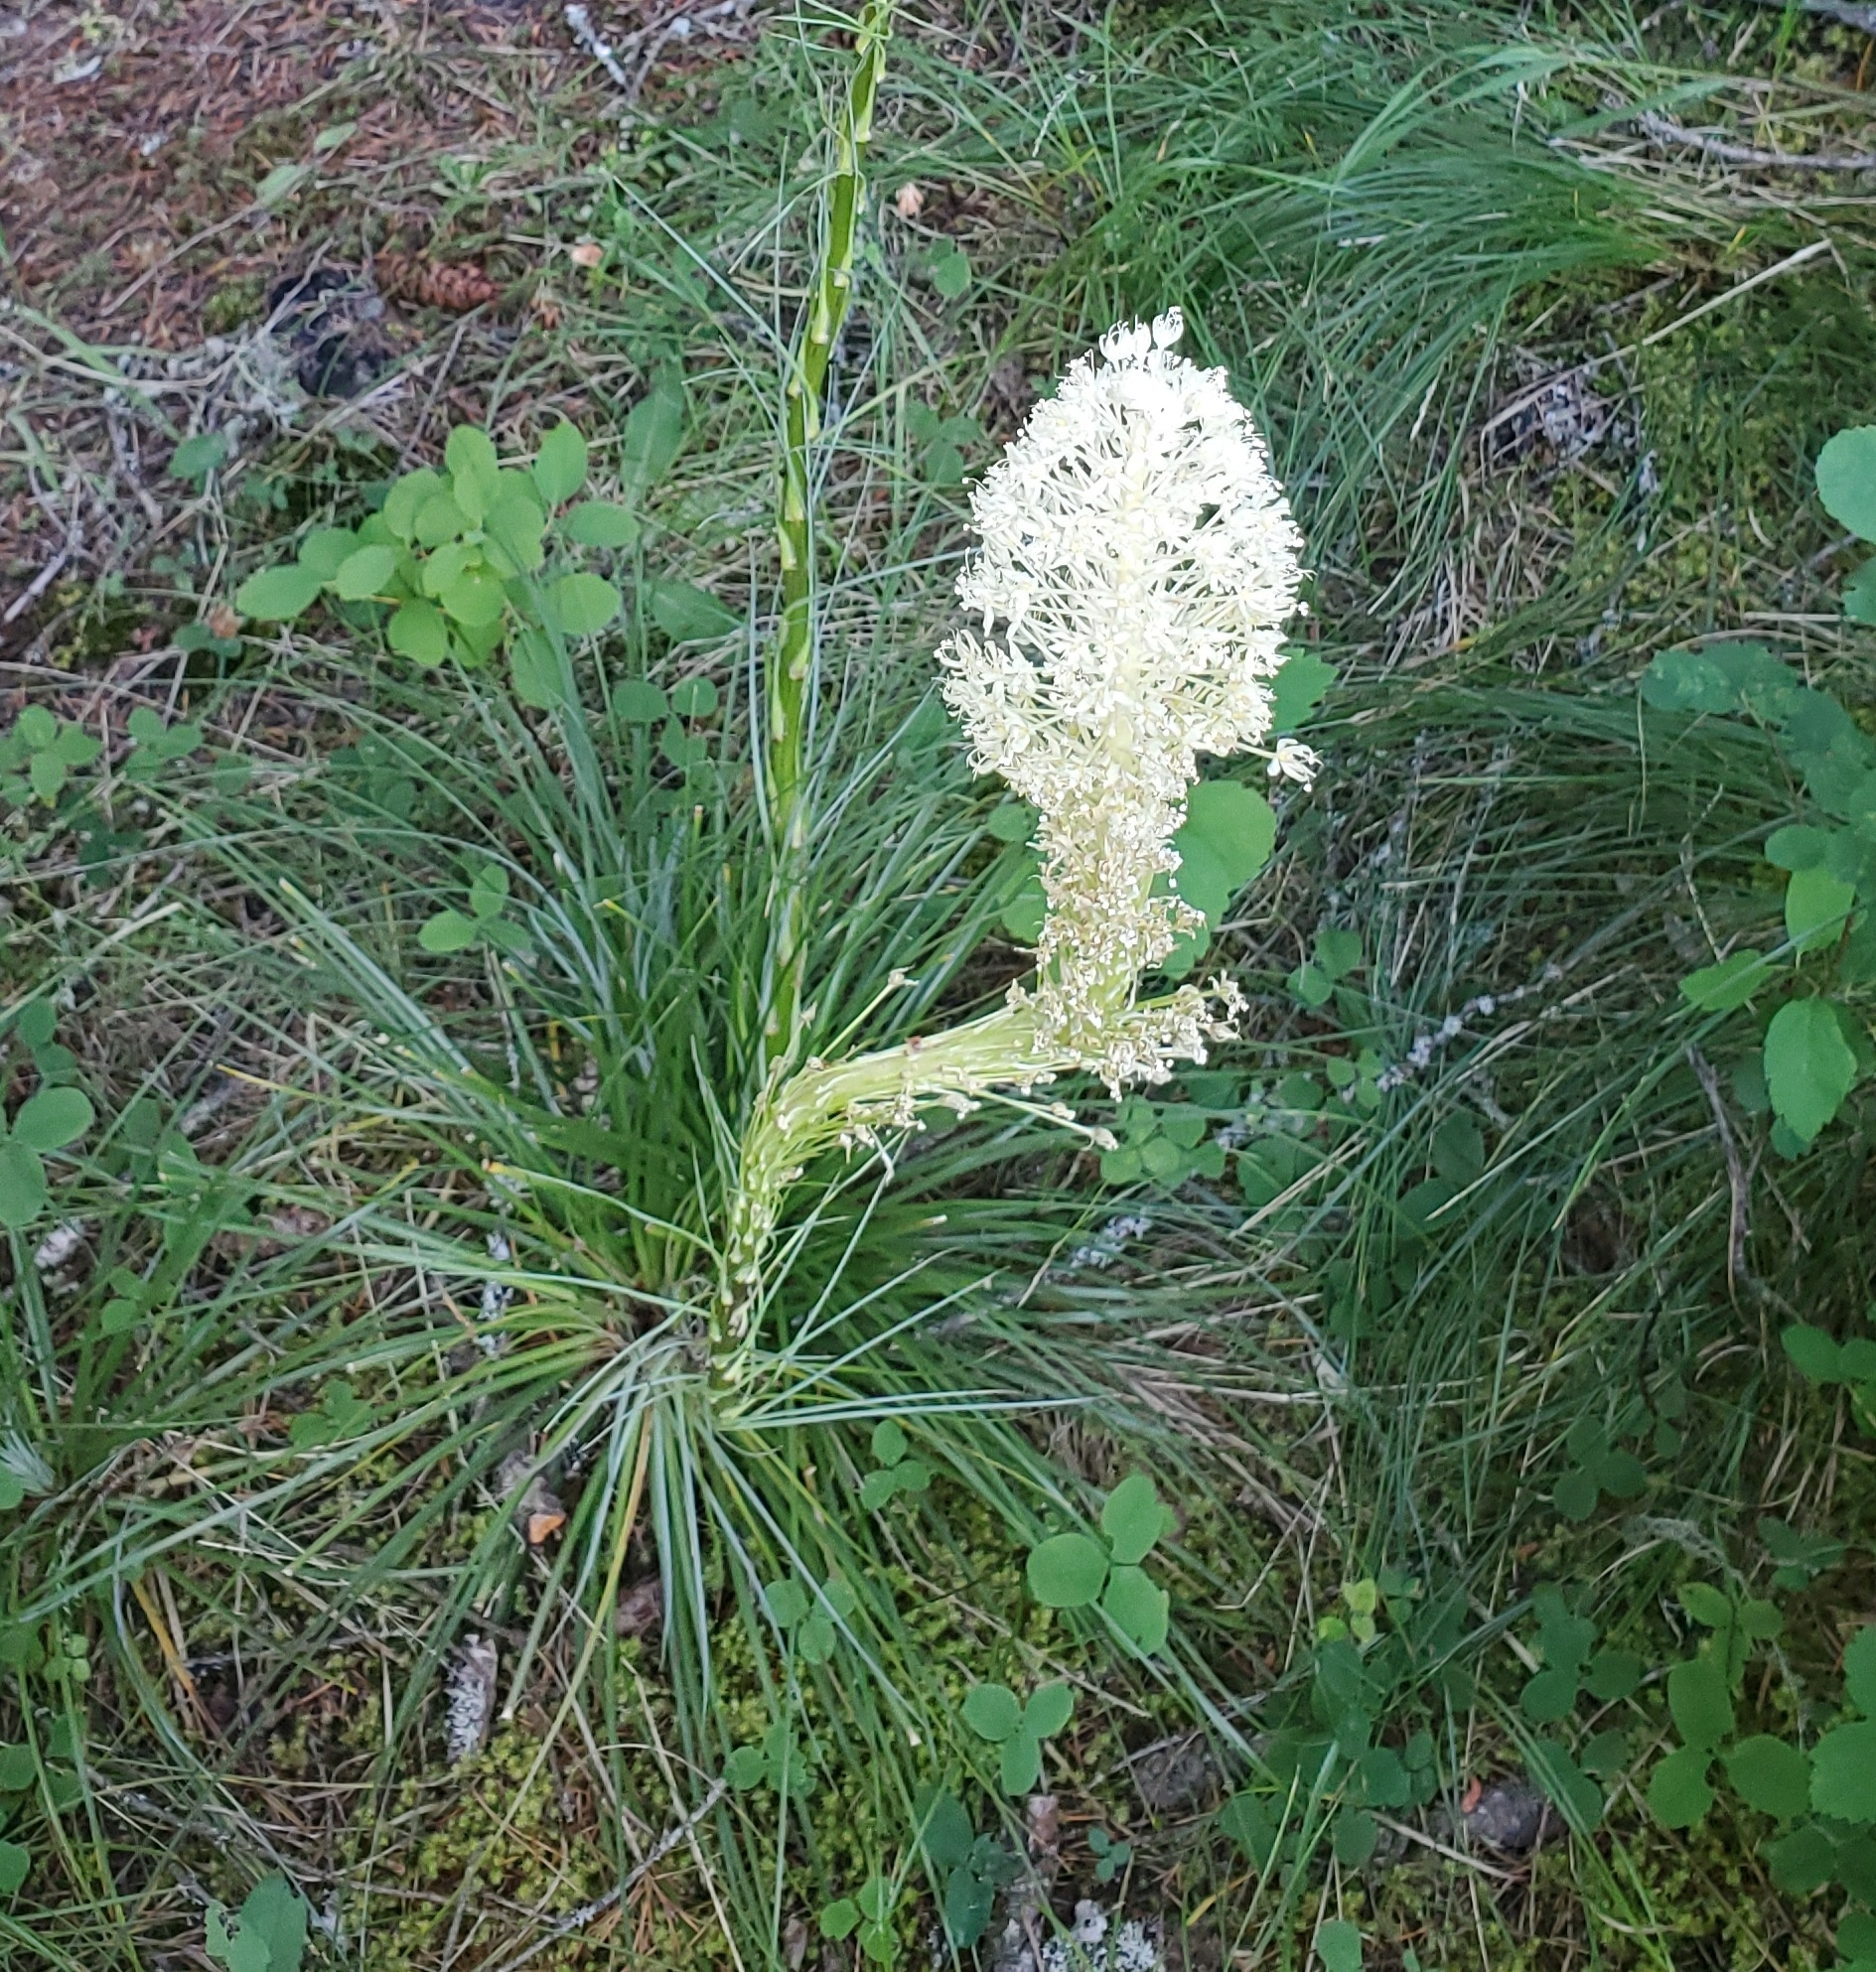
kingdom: Plantae
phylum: Tracheophyta
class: Liliopsida
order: Liliales
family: Melanthiaceae
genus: Xerophyllum
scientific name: Xerophyllum tenax
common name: Bear-grass
